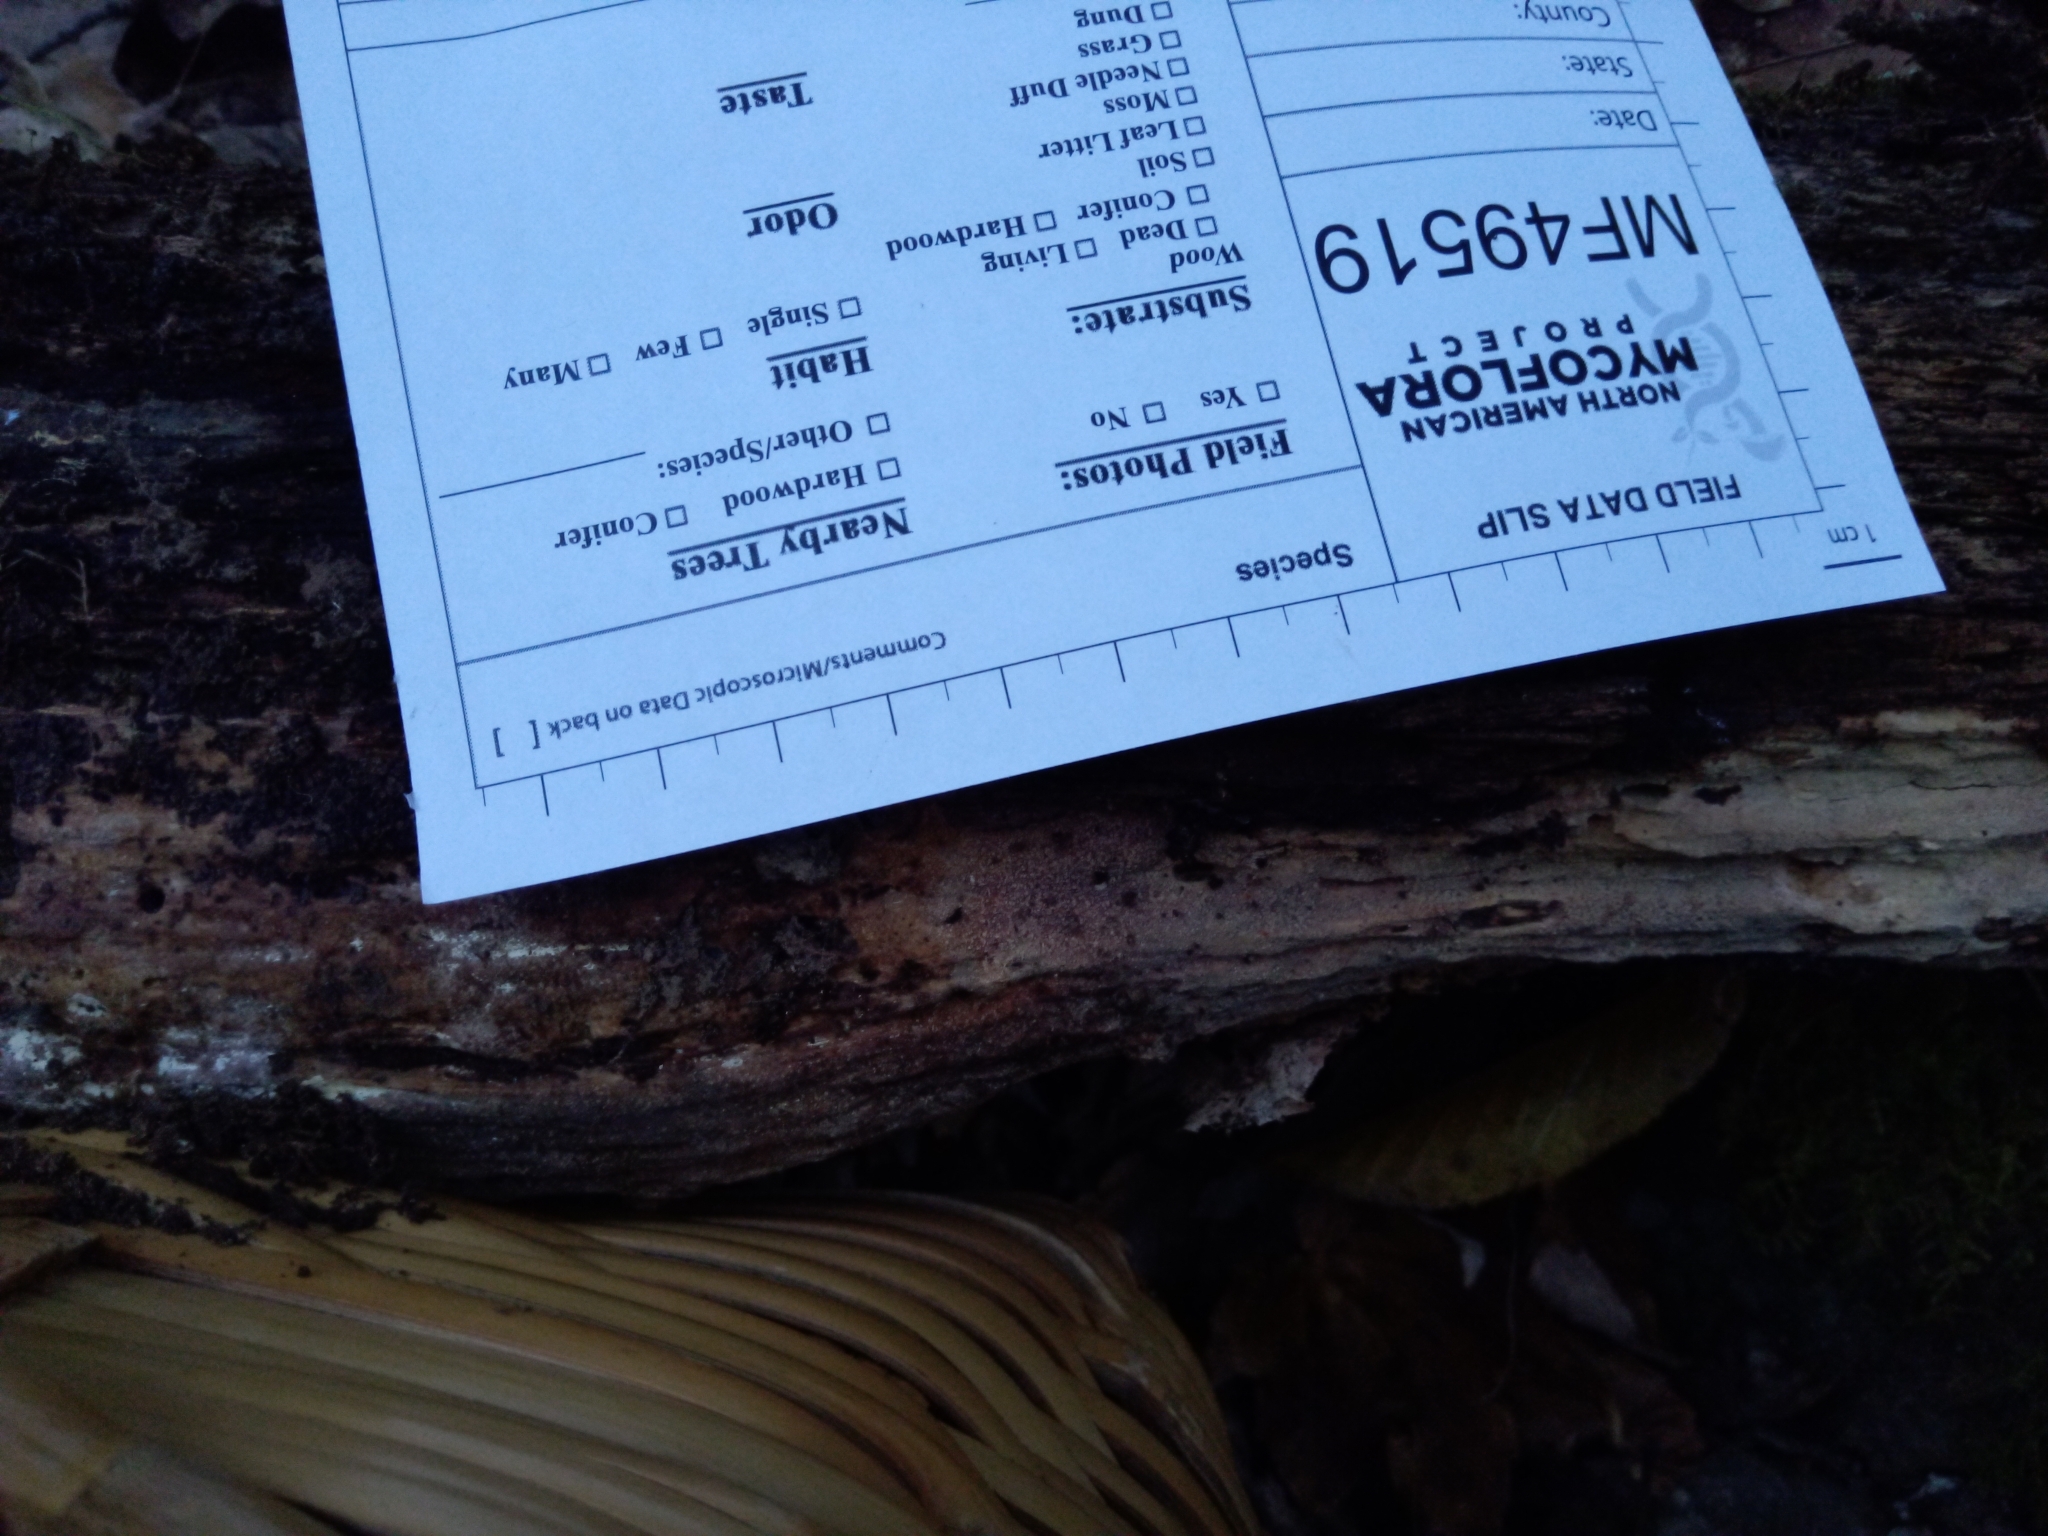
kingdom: Fungi
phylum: Basidiomycota
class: Agaricomycetes
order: Polyporales
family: Meruliaceae
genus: Crustodontia
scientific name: Crustodontia chrysocreas
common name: Wood decay
